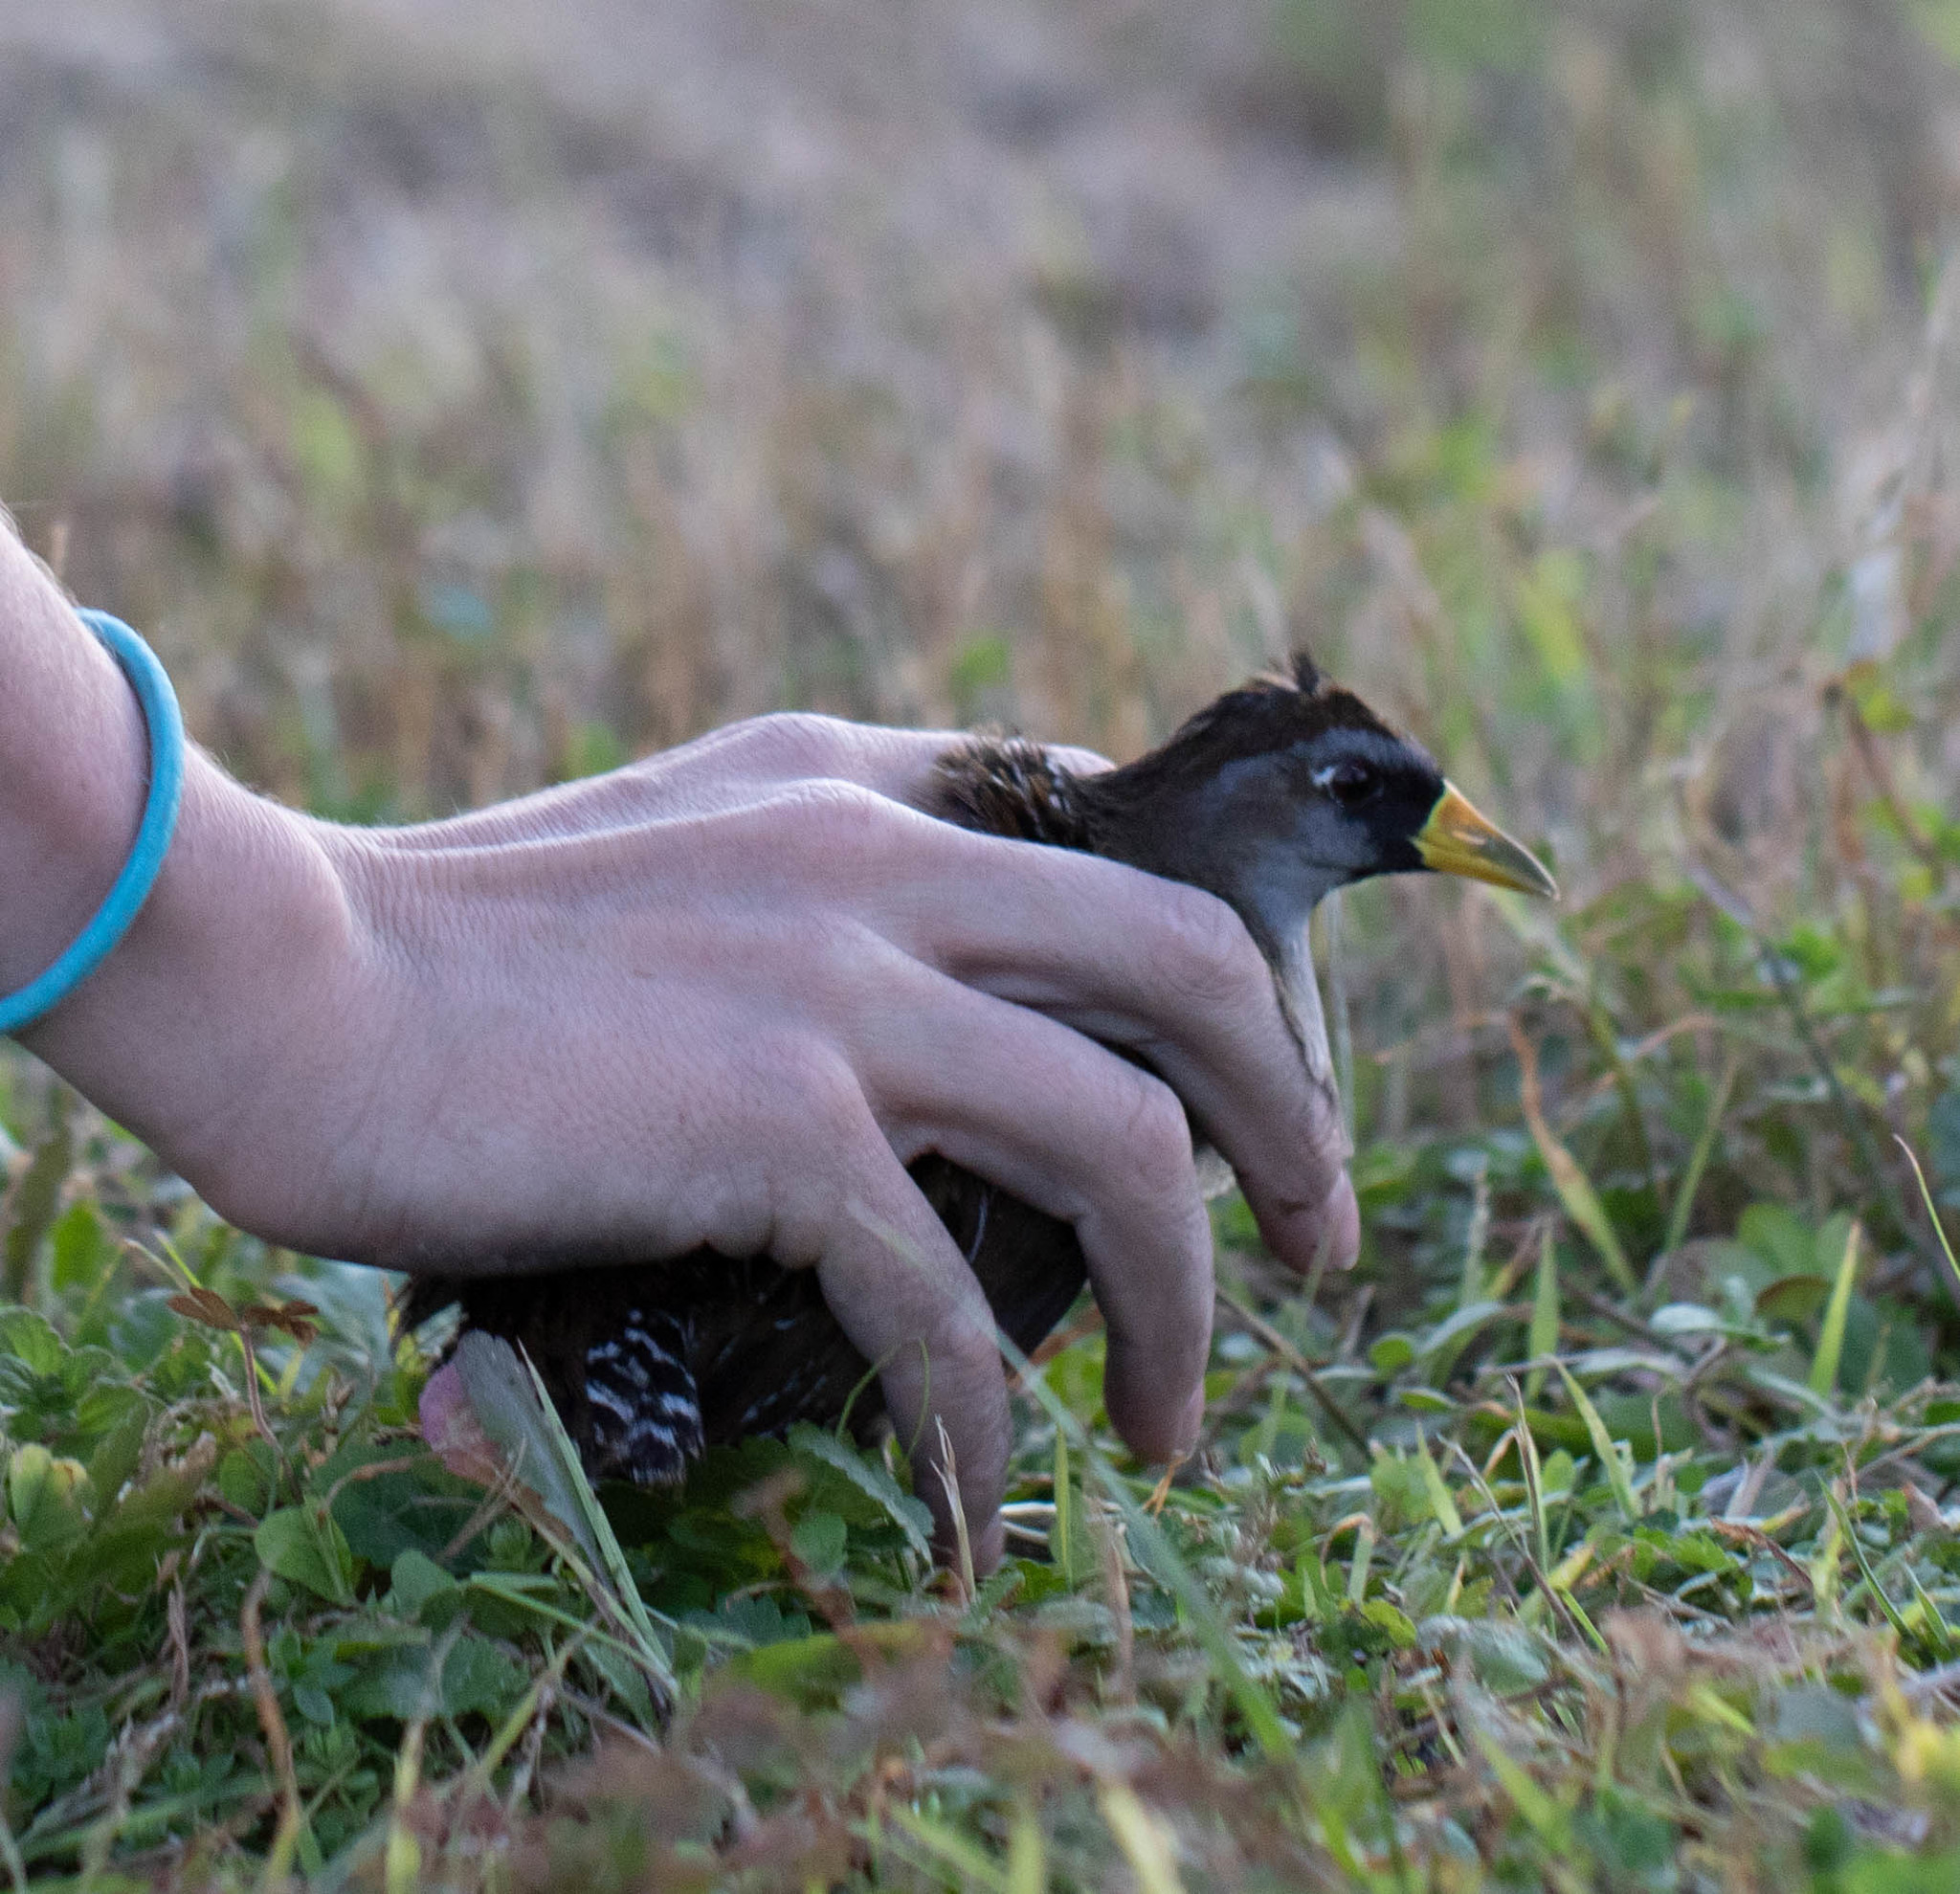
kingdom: Animalia
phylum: Chordata
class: Aves
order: Gruiformes
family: Rallidae
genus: Porzana
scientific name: Porzana carolina
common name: Sora
